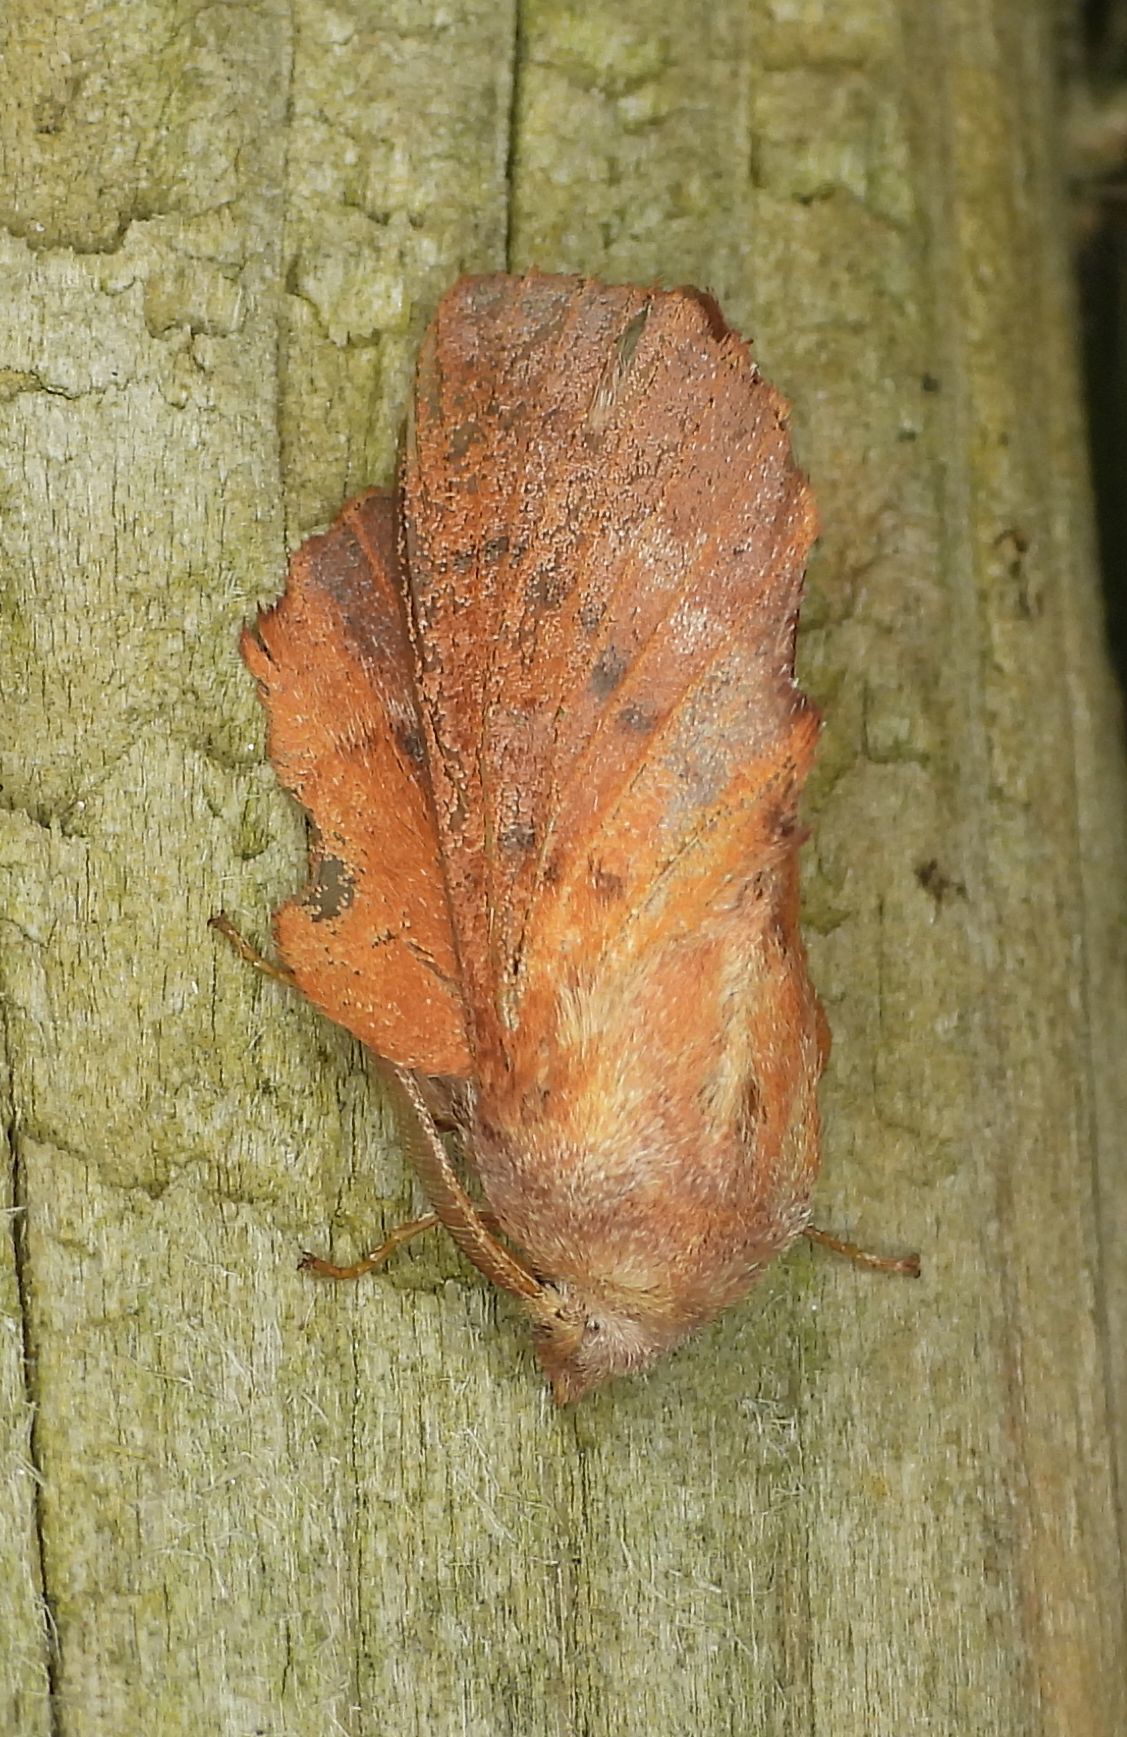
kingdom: Animalia
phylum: Arthropoda
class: Insecta
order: Lepidoptera
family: Lasiocampidae
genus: Phyllodesma
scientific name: Phyllodesma americana
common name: American lappet moth
